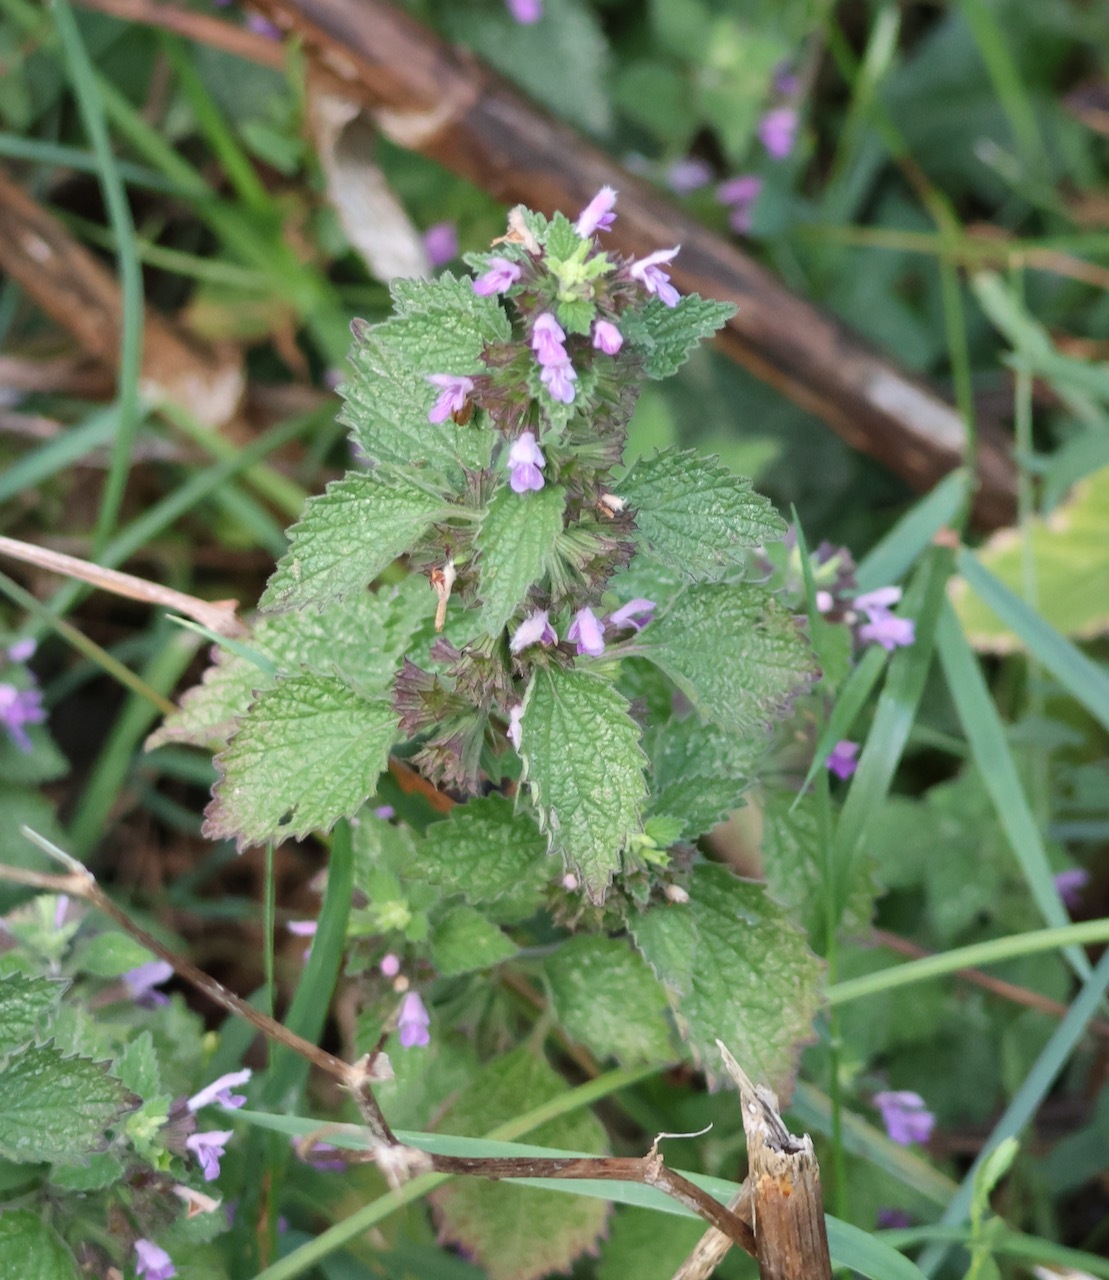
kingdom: Plantae
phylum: Tracheophyta
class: Magnoliopsida
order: Lamiales
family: Lamiaceae
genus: Ballota
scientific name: Ballota nigra
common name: Black horehound
